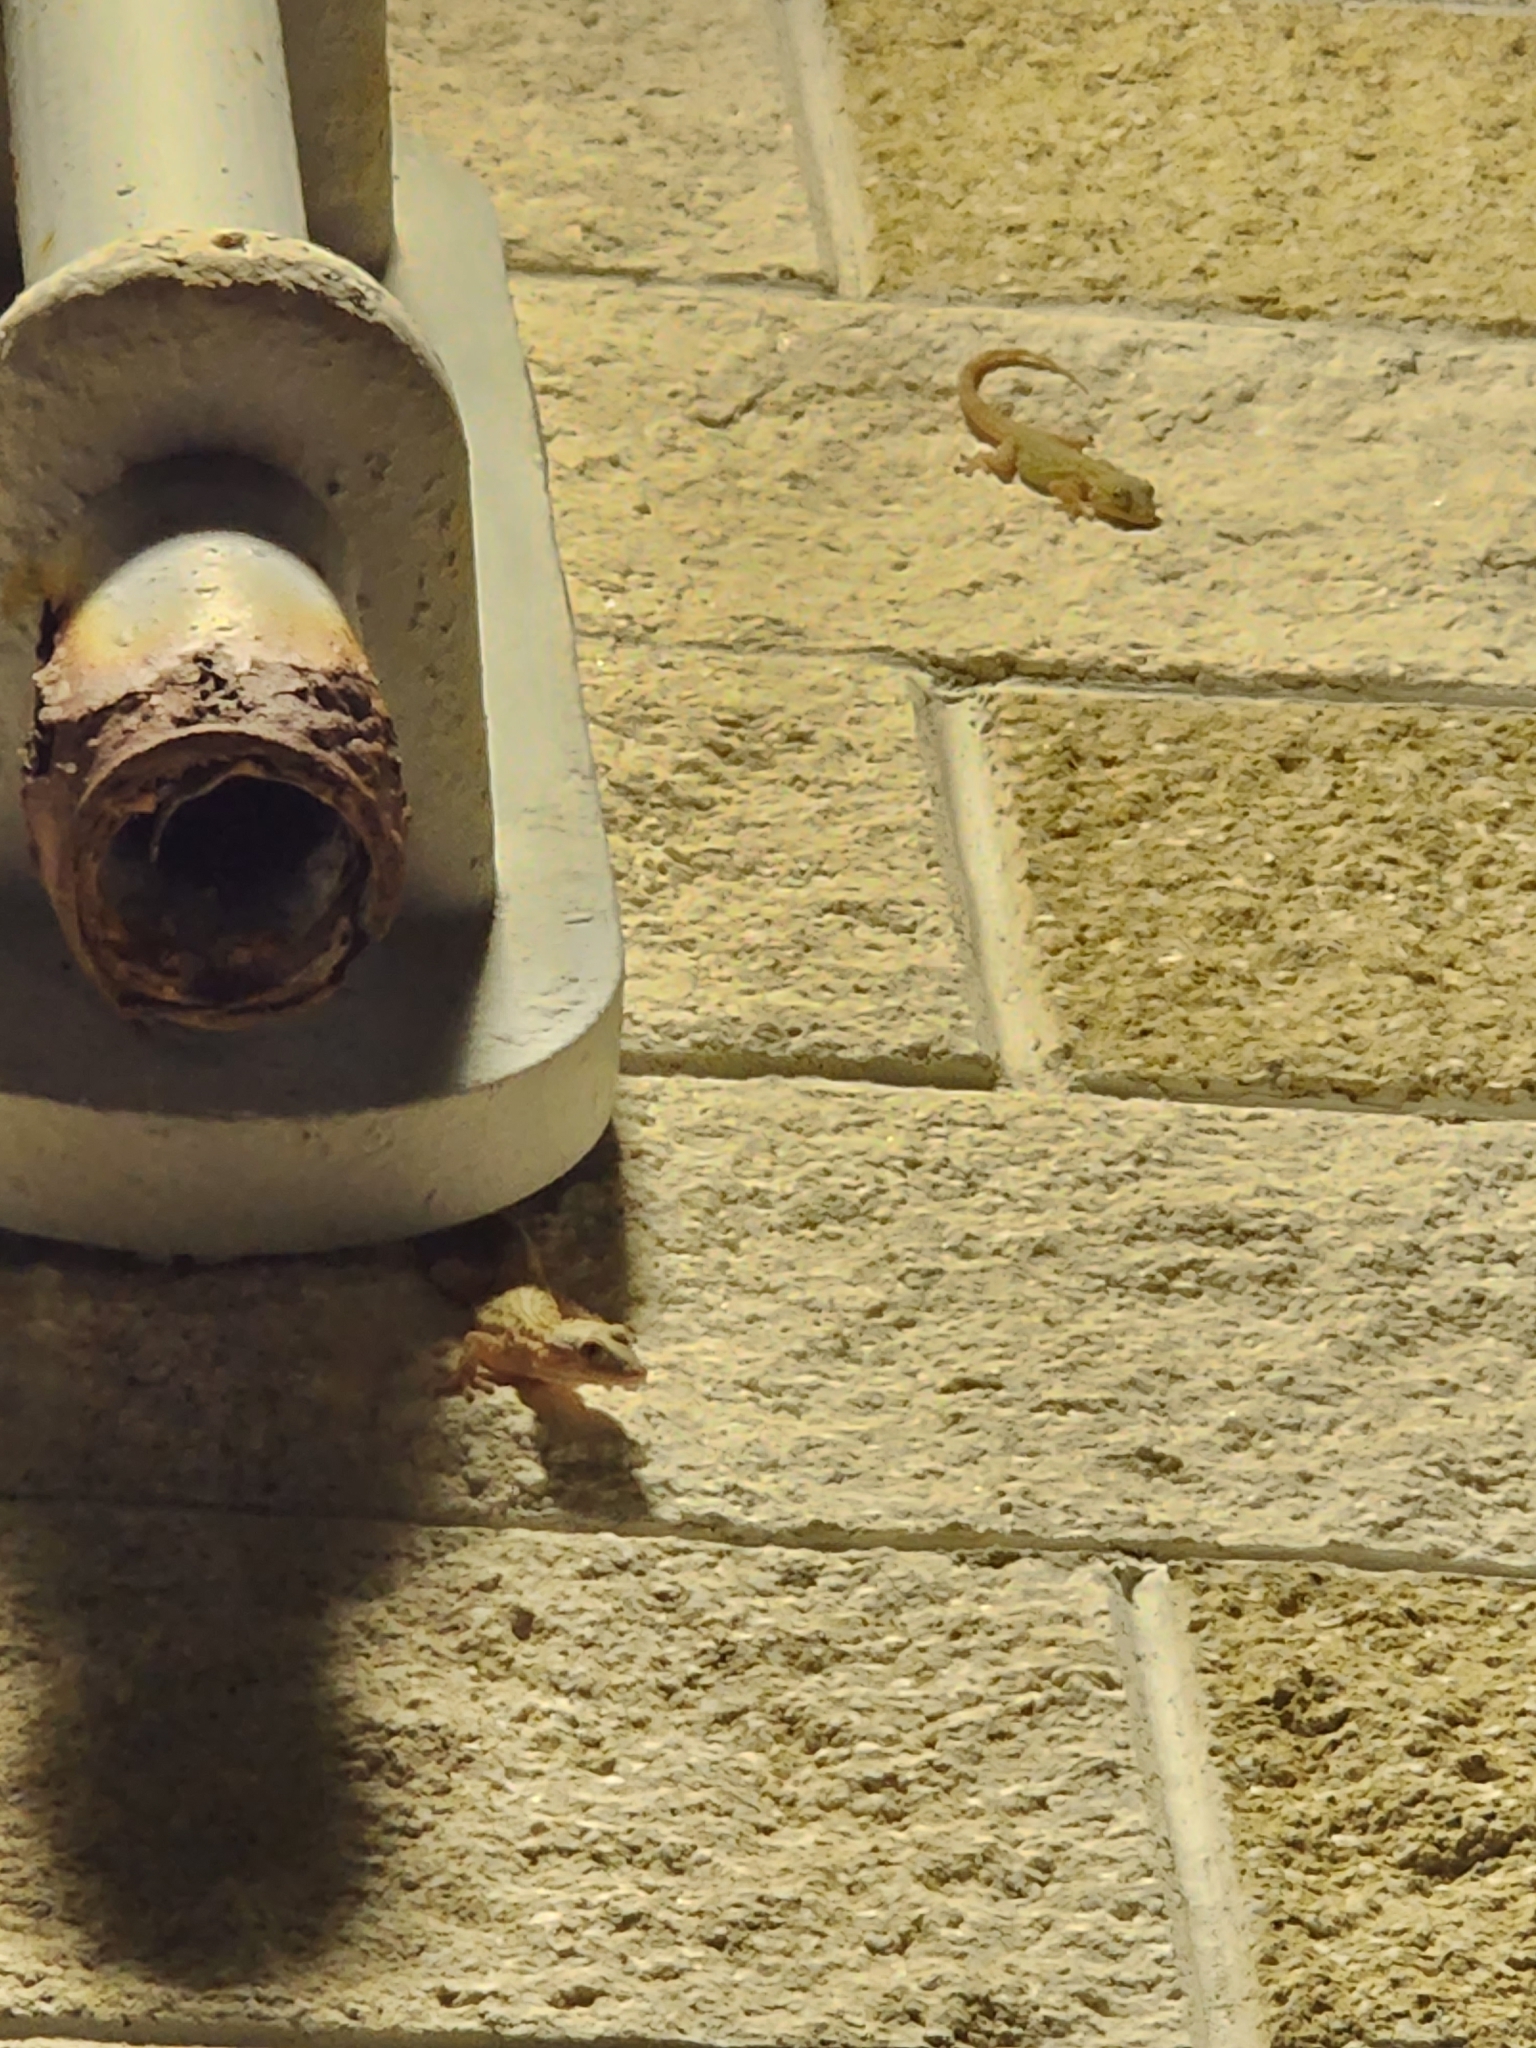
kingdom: Animalia
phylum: Chordata
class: Squamata
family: Phyllodactylidae
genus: Tarentola
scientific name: Tarentola mauritanica
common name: Moorish gecko
